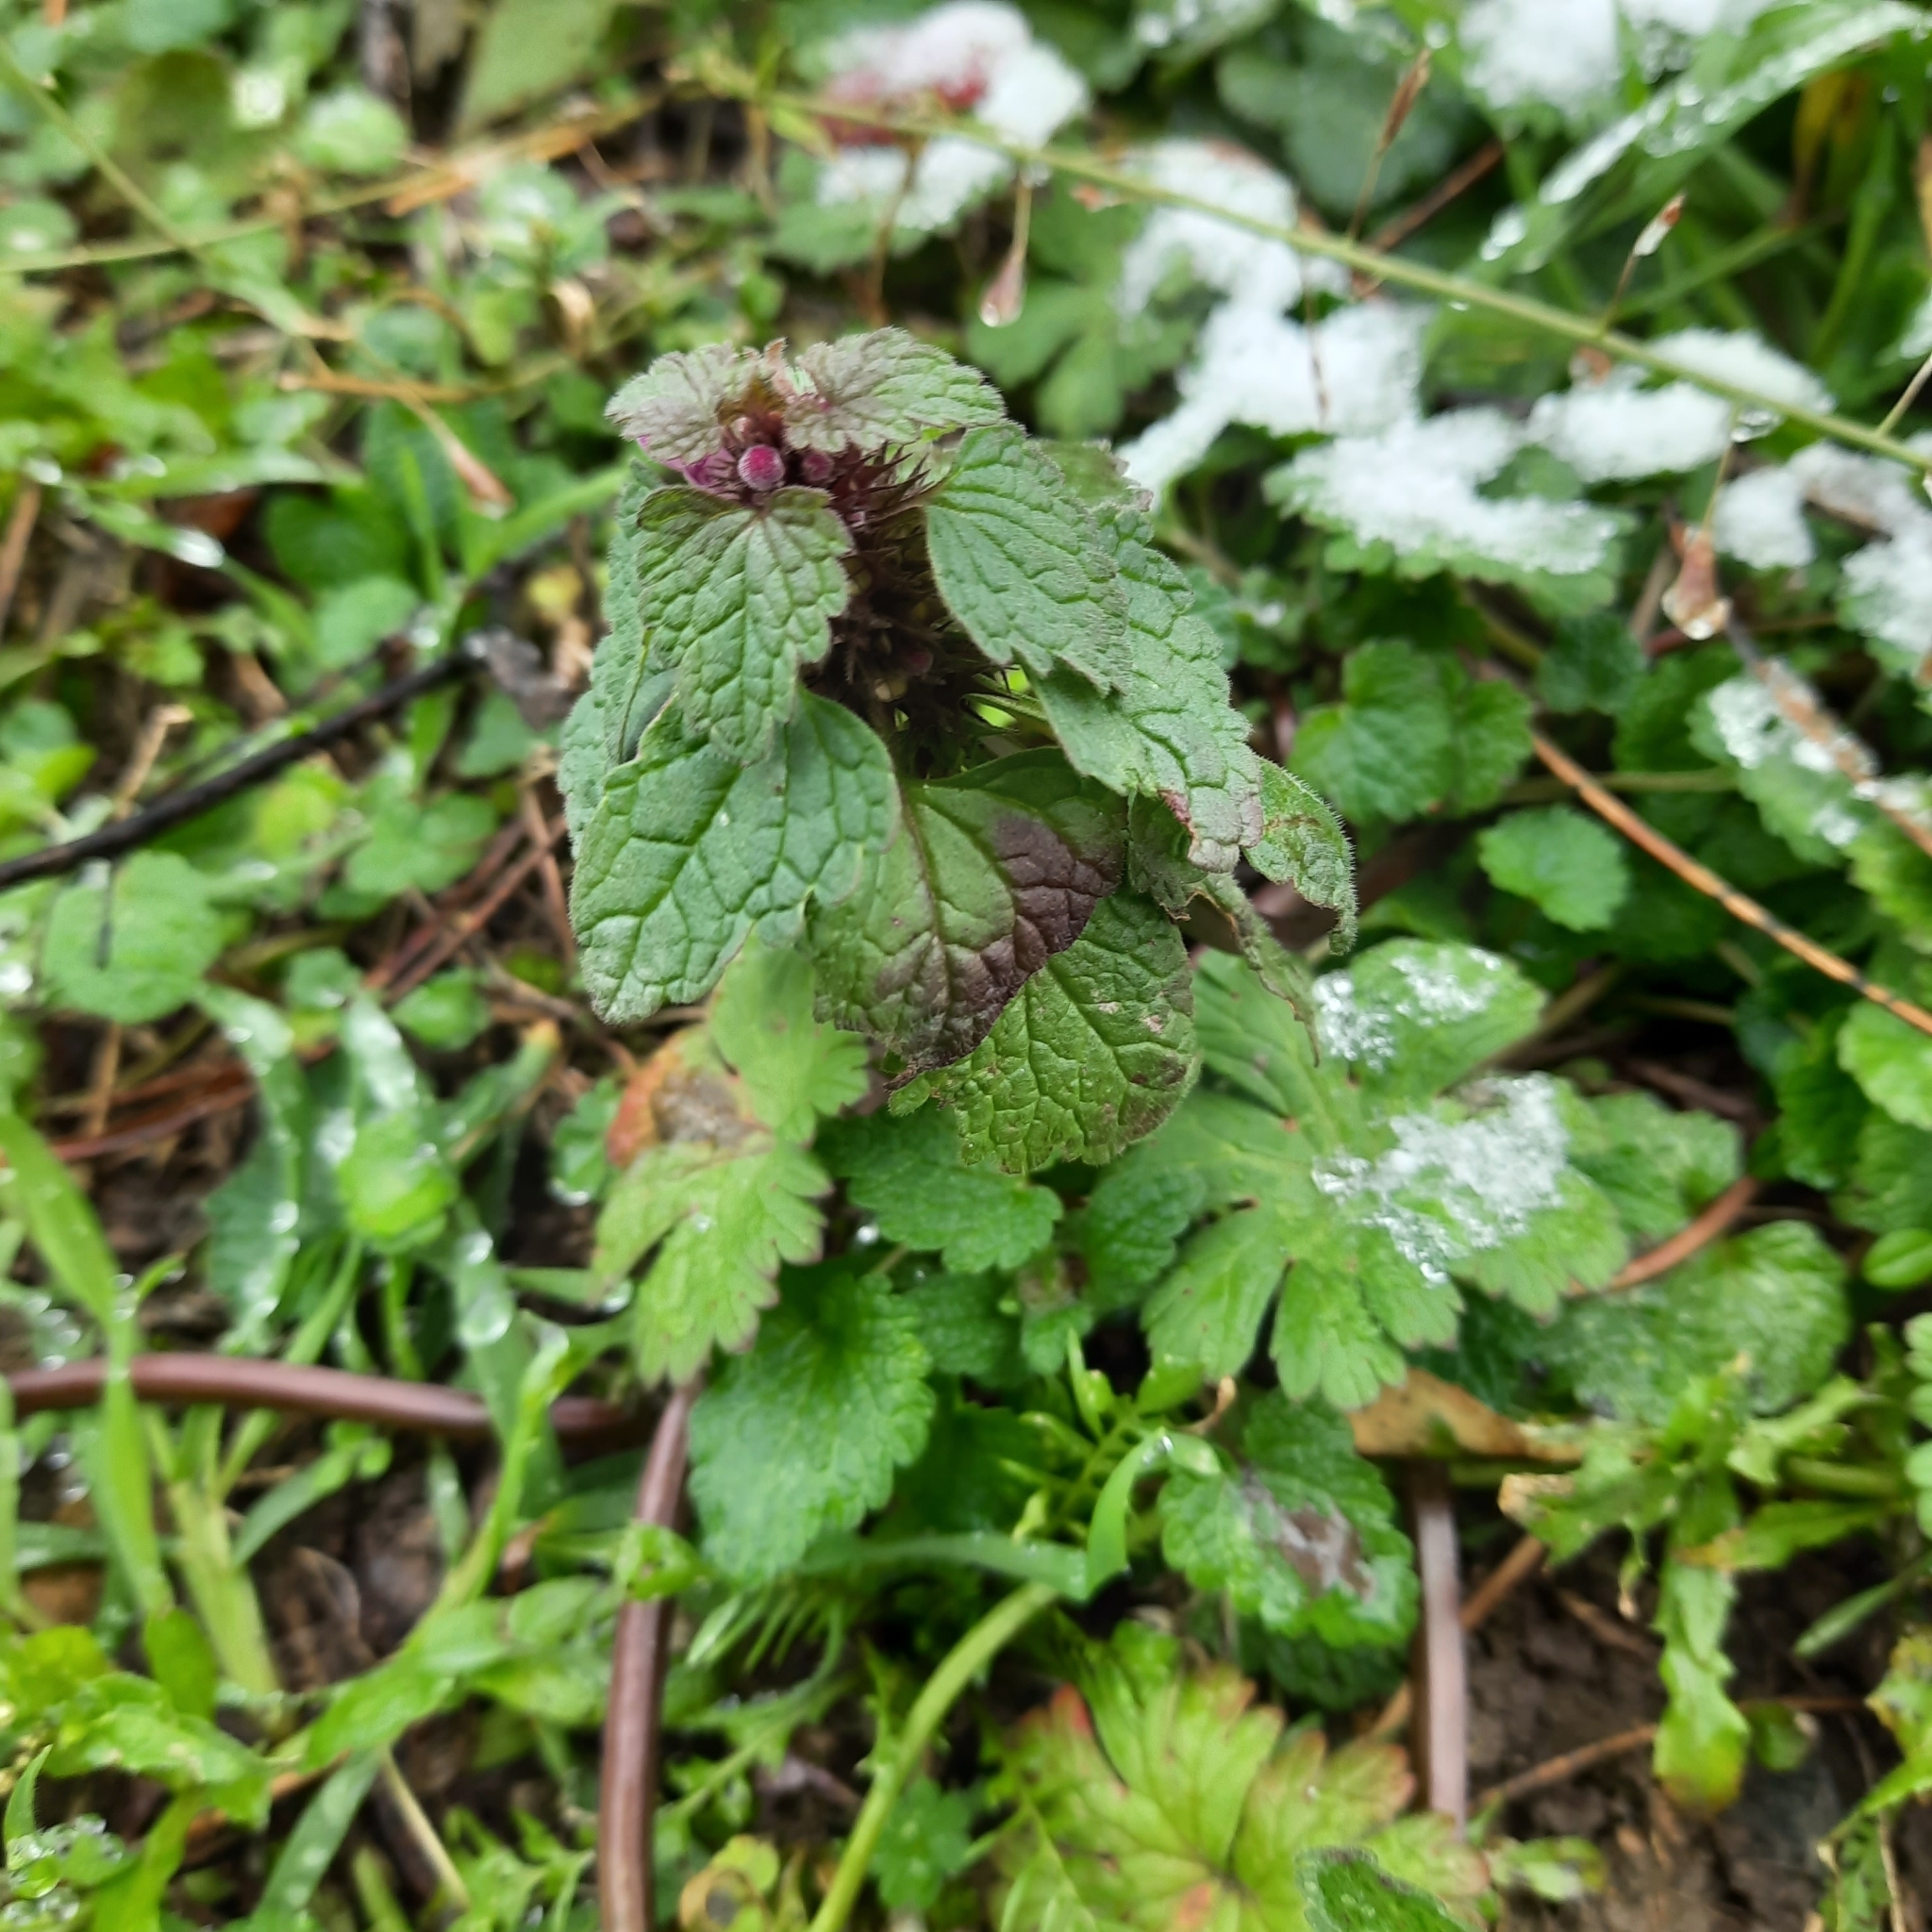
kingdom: Plantae
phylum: Tracheophyta
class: Magnoliopsida
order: Lamiales
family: Lamiaceae
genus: Lamium
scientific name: Lamium purpureum
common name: Red dead-nettle
